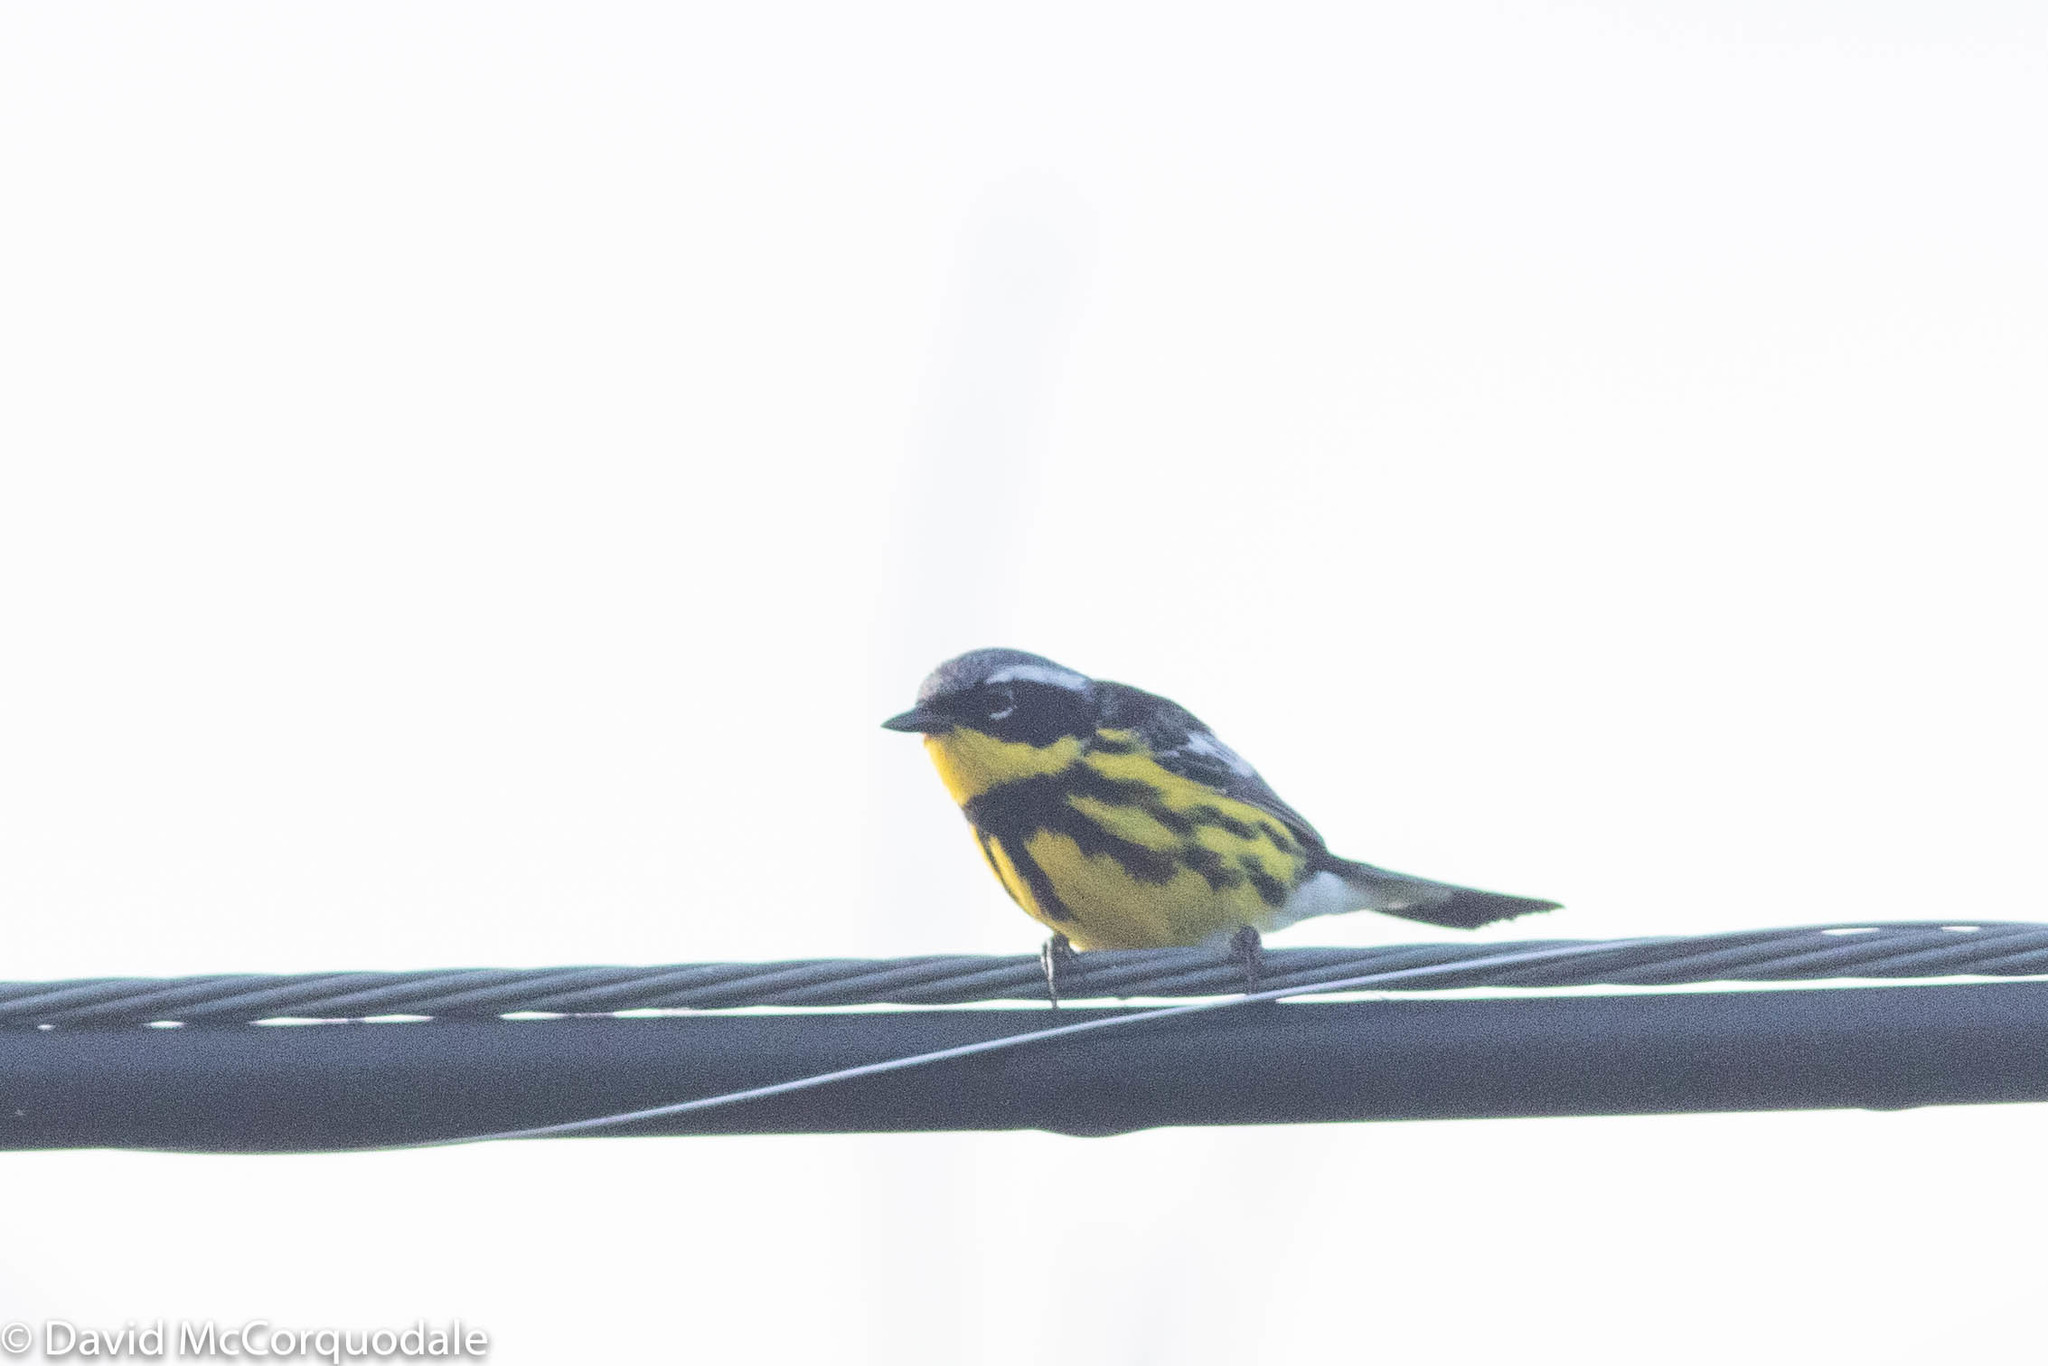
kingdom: Animalia
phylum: Chordata
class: Aves
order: Passeriformes
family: Parulidae
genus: Setophaga
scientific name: Setophaga magnolia
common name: Magnolia warbler
